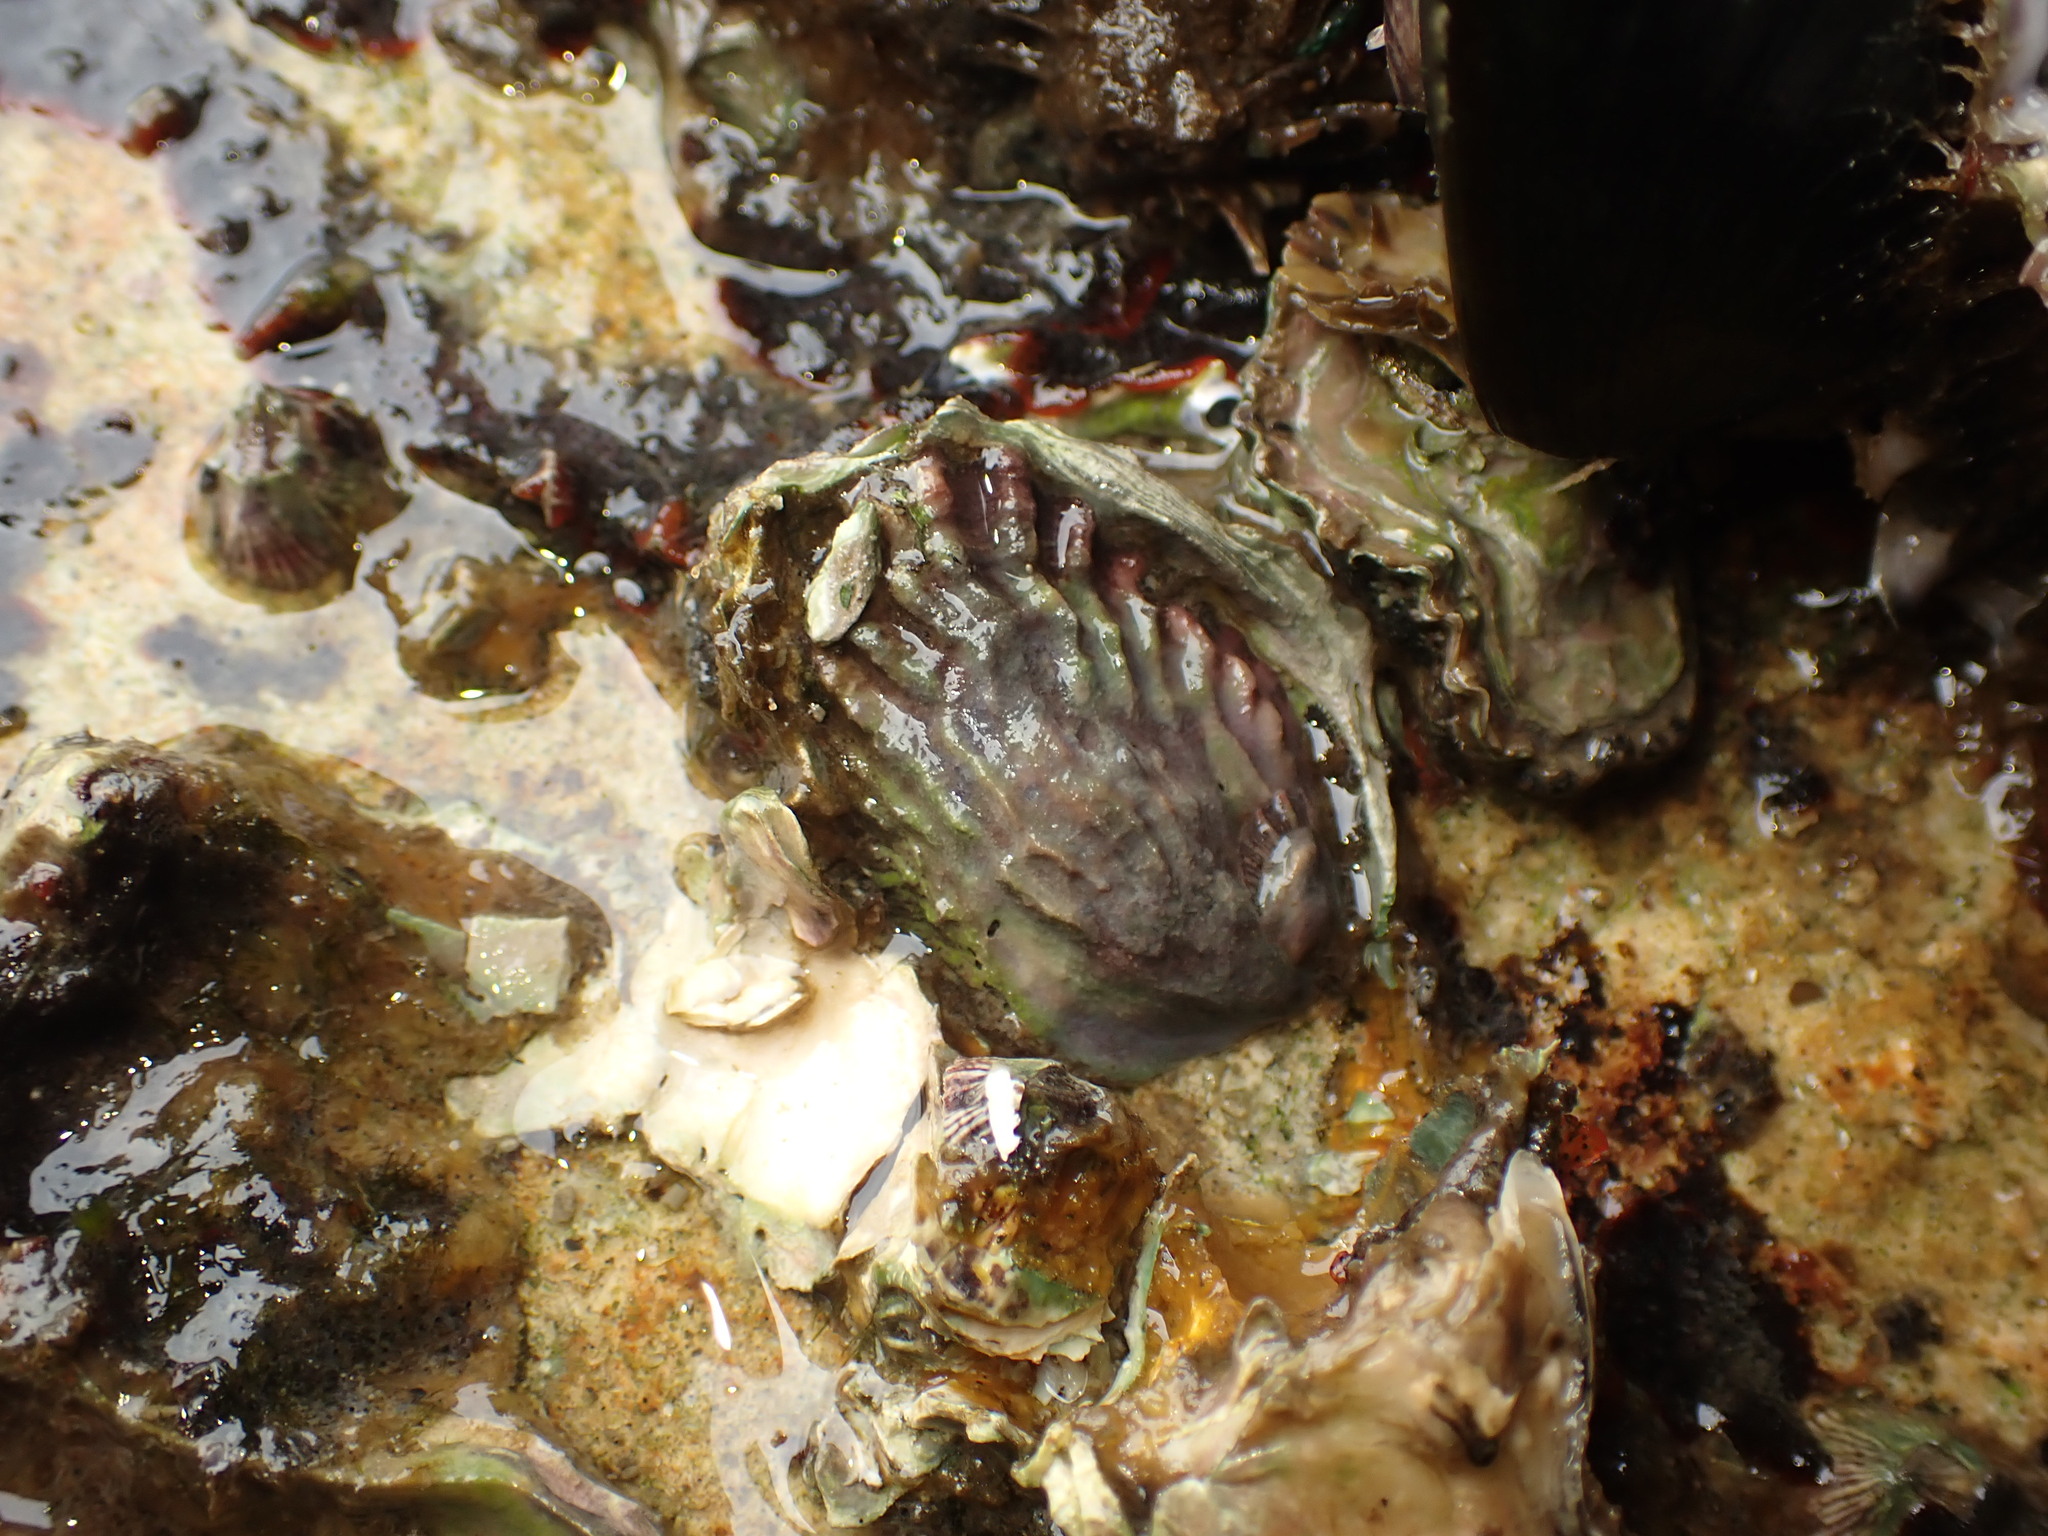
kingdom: Animalia
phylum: Mollusca
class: Gastropoda
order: Littorinimorpha
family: Calyptraeidae
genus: Maoricrypta
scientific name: Maoricrypta costata
